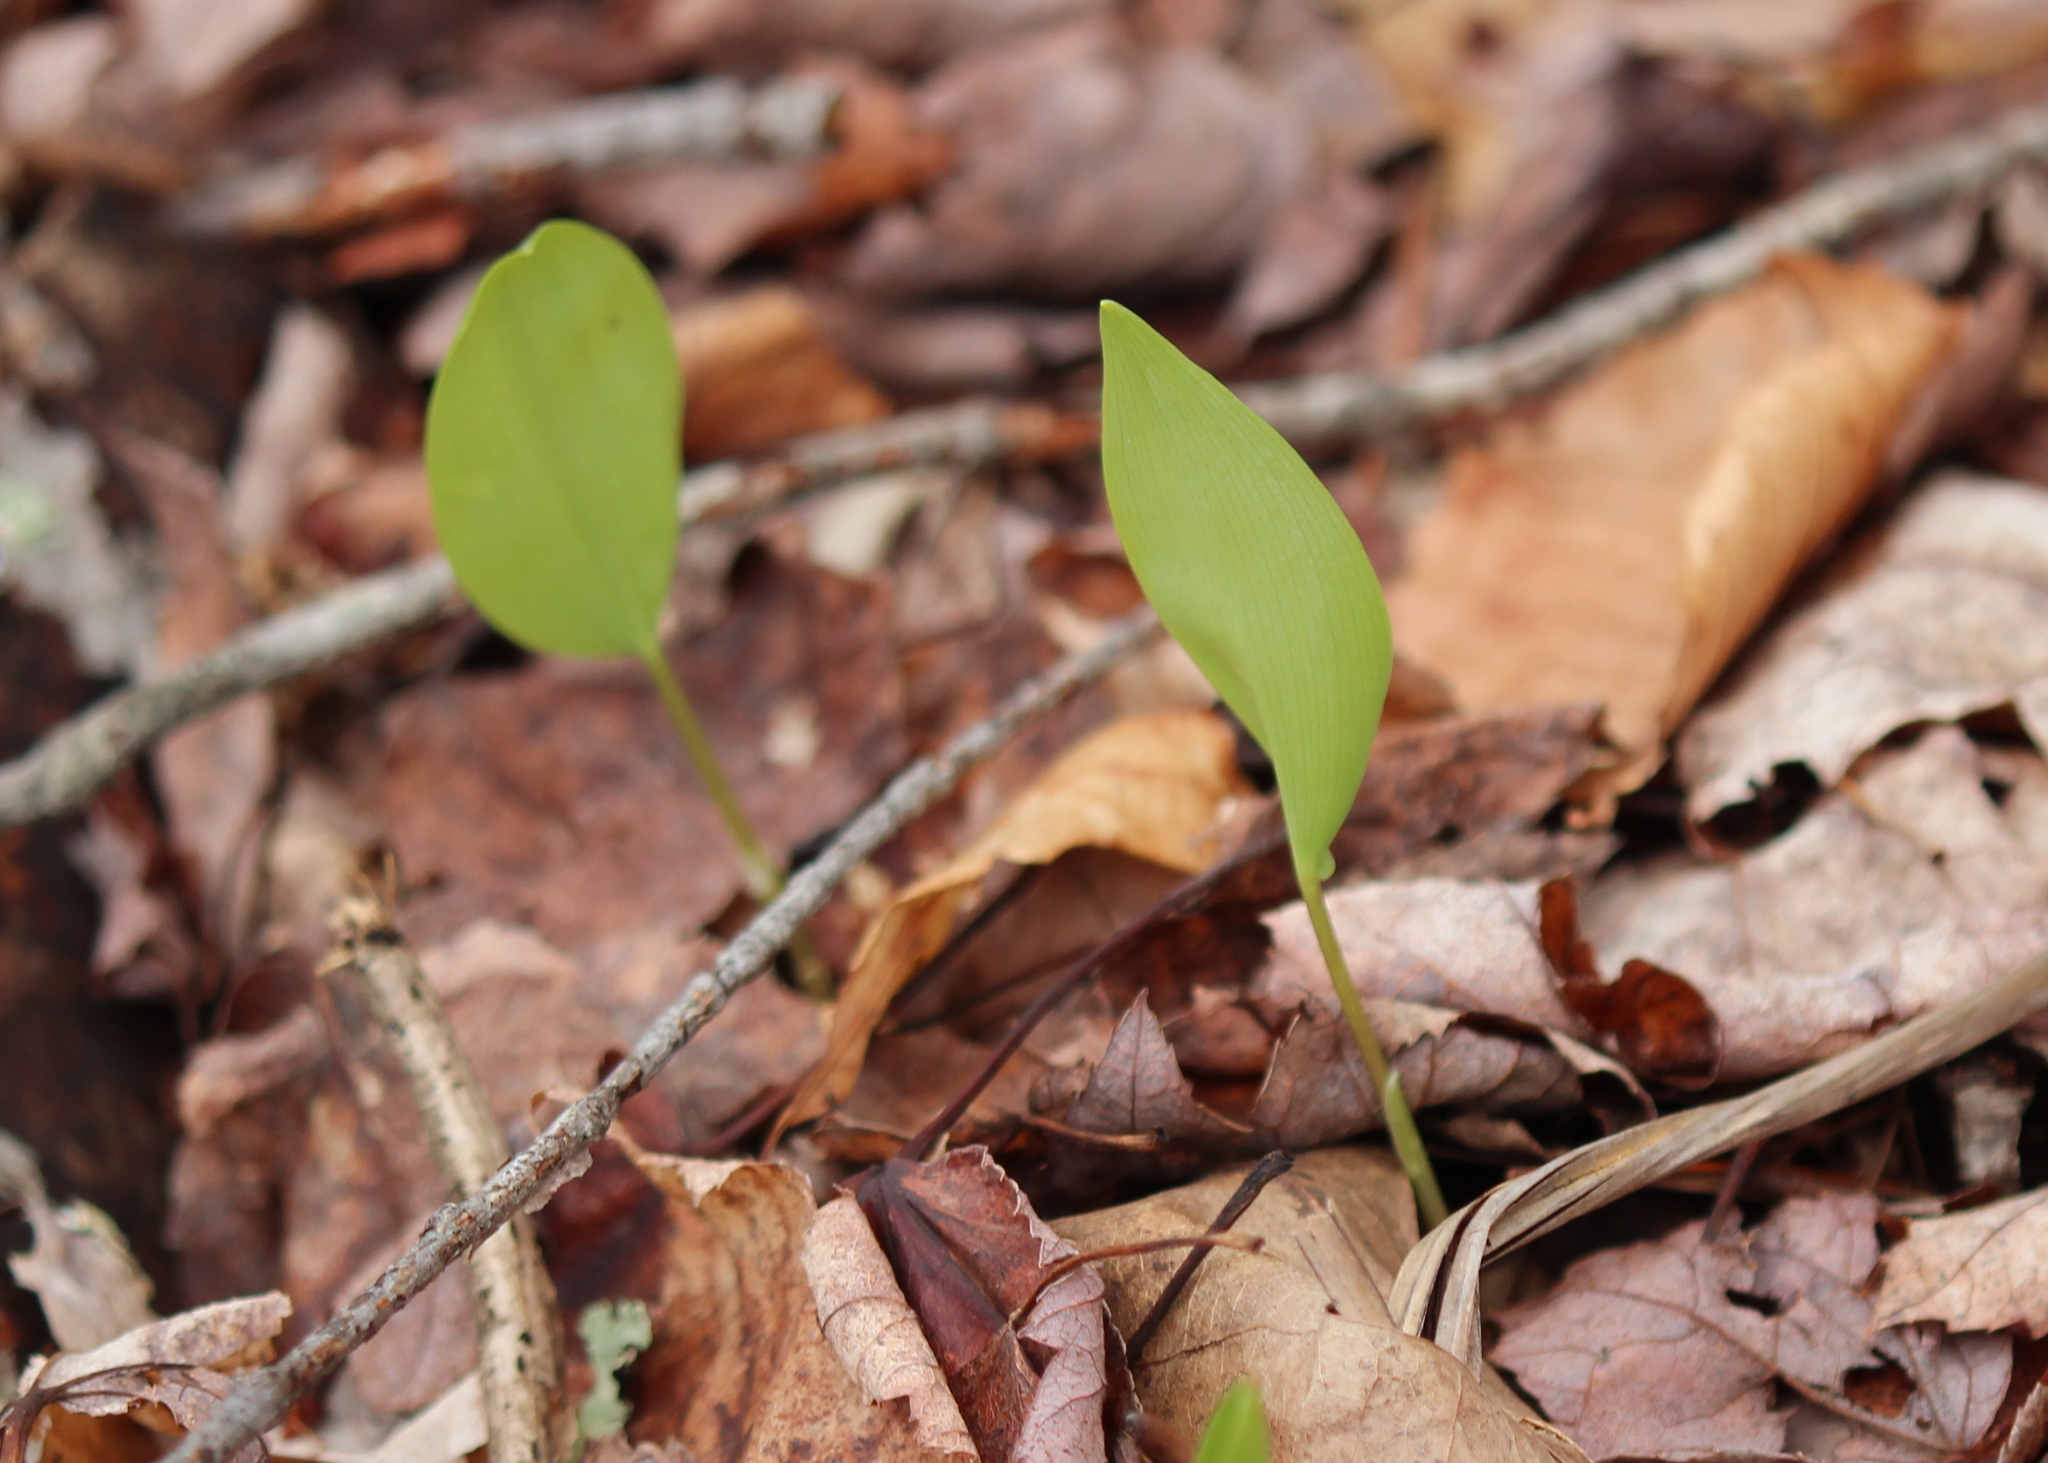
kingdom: Plantae
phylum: Tracheophyta
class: Liliopsida
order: Asparagales
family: Asparagaceae
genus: Maianthemum
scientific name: Maianthemum canadense
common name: False lily-of-the-valley
